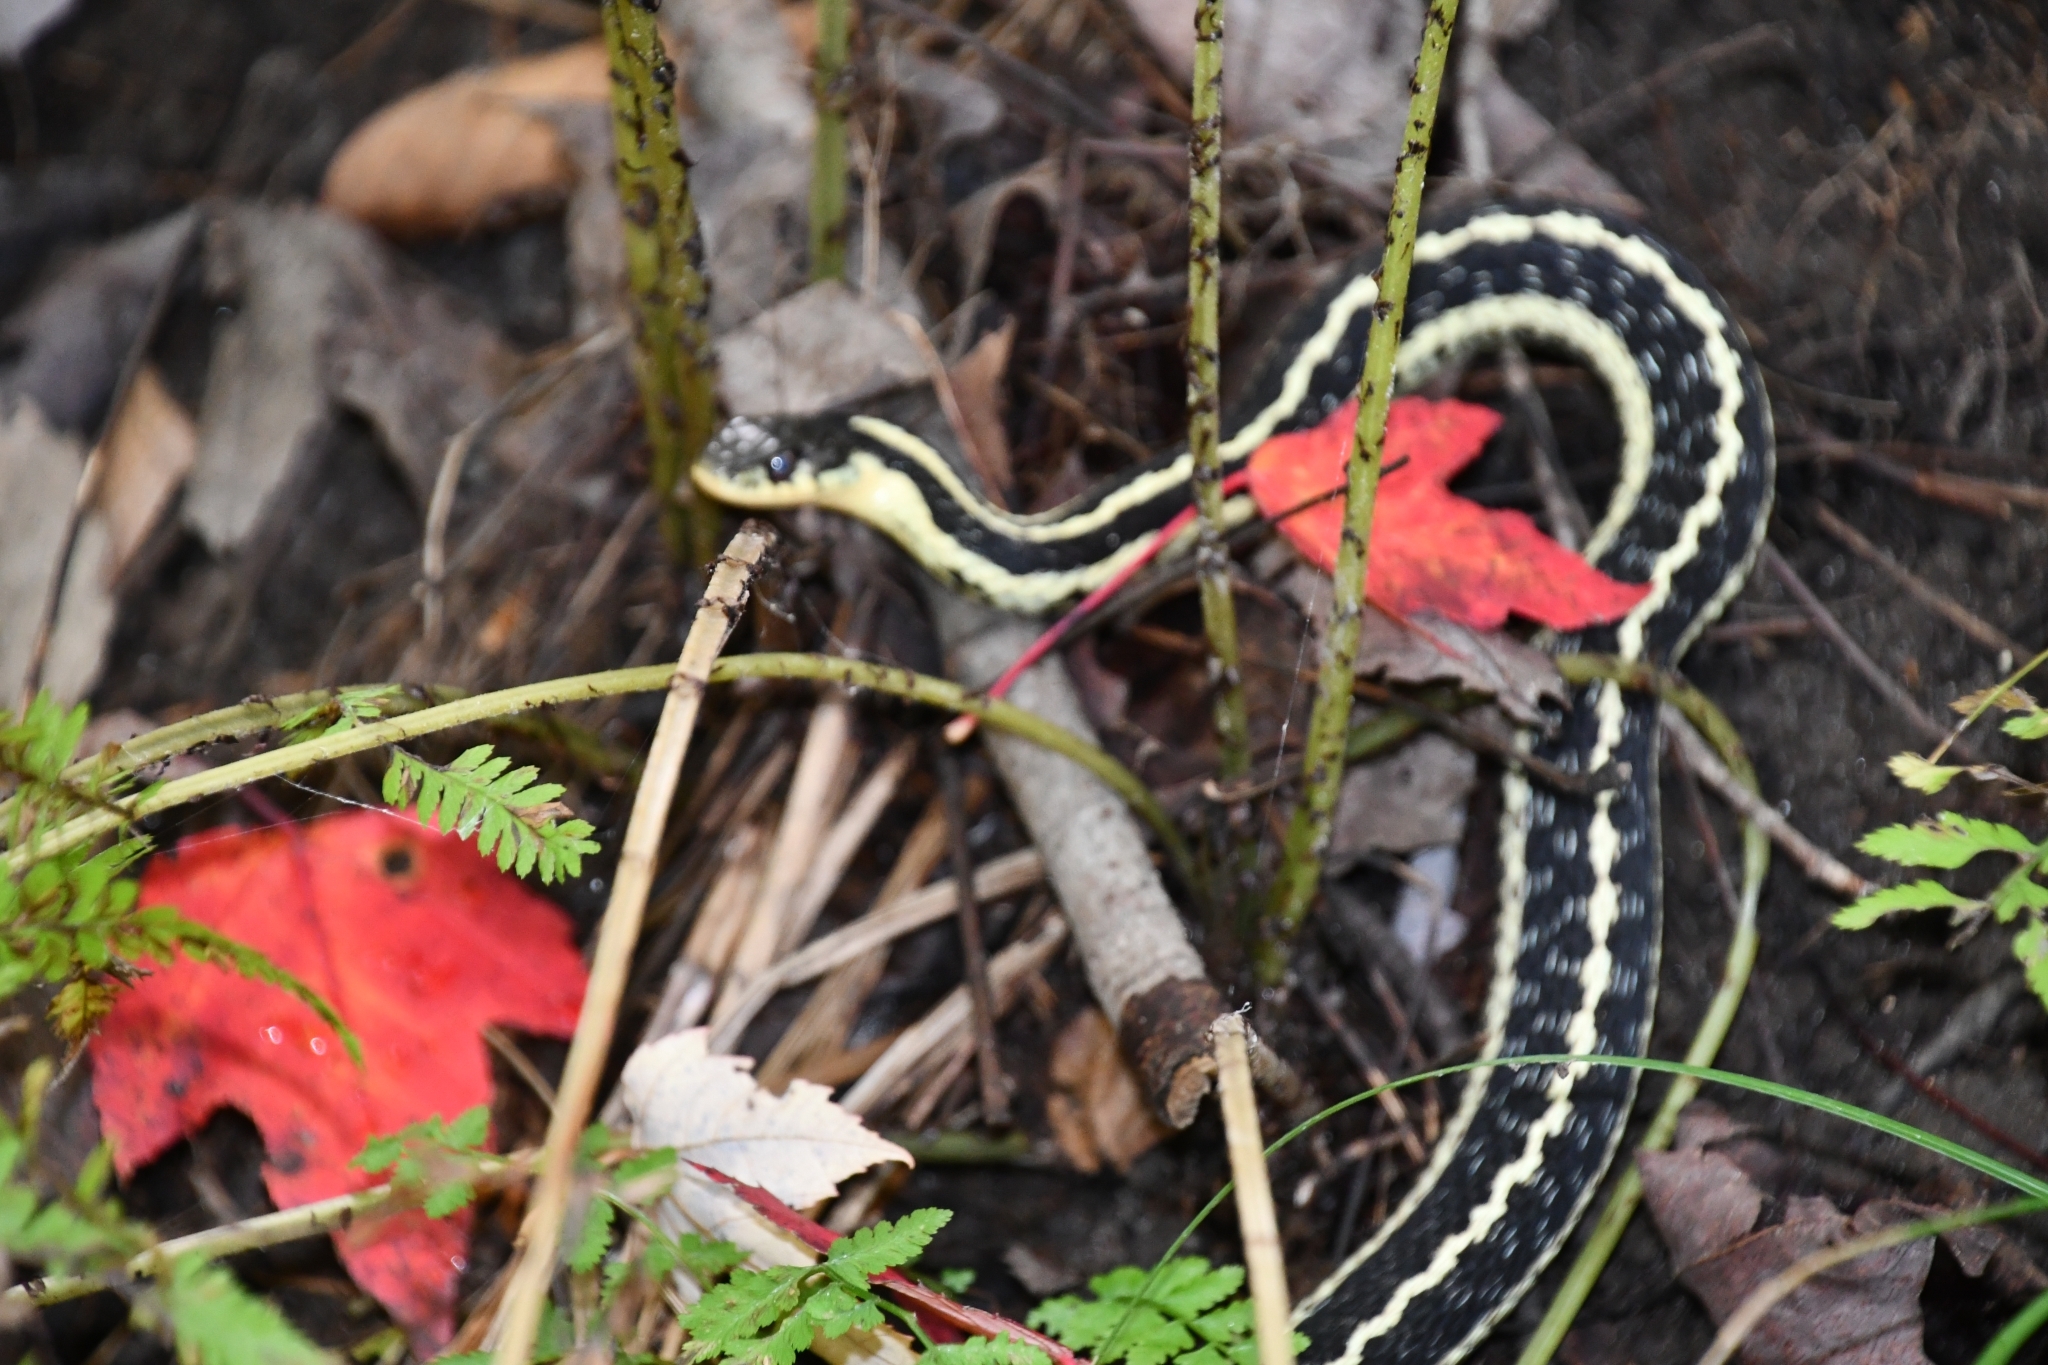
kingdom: Animalia
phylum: Chordata
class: Squamata
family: Colubridae
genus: Thamnophis
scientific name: Thamnophis sirtalis
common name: Common garter snake
